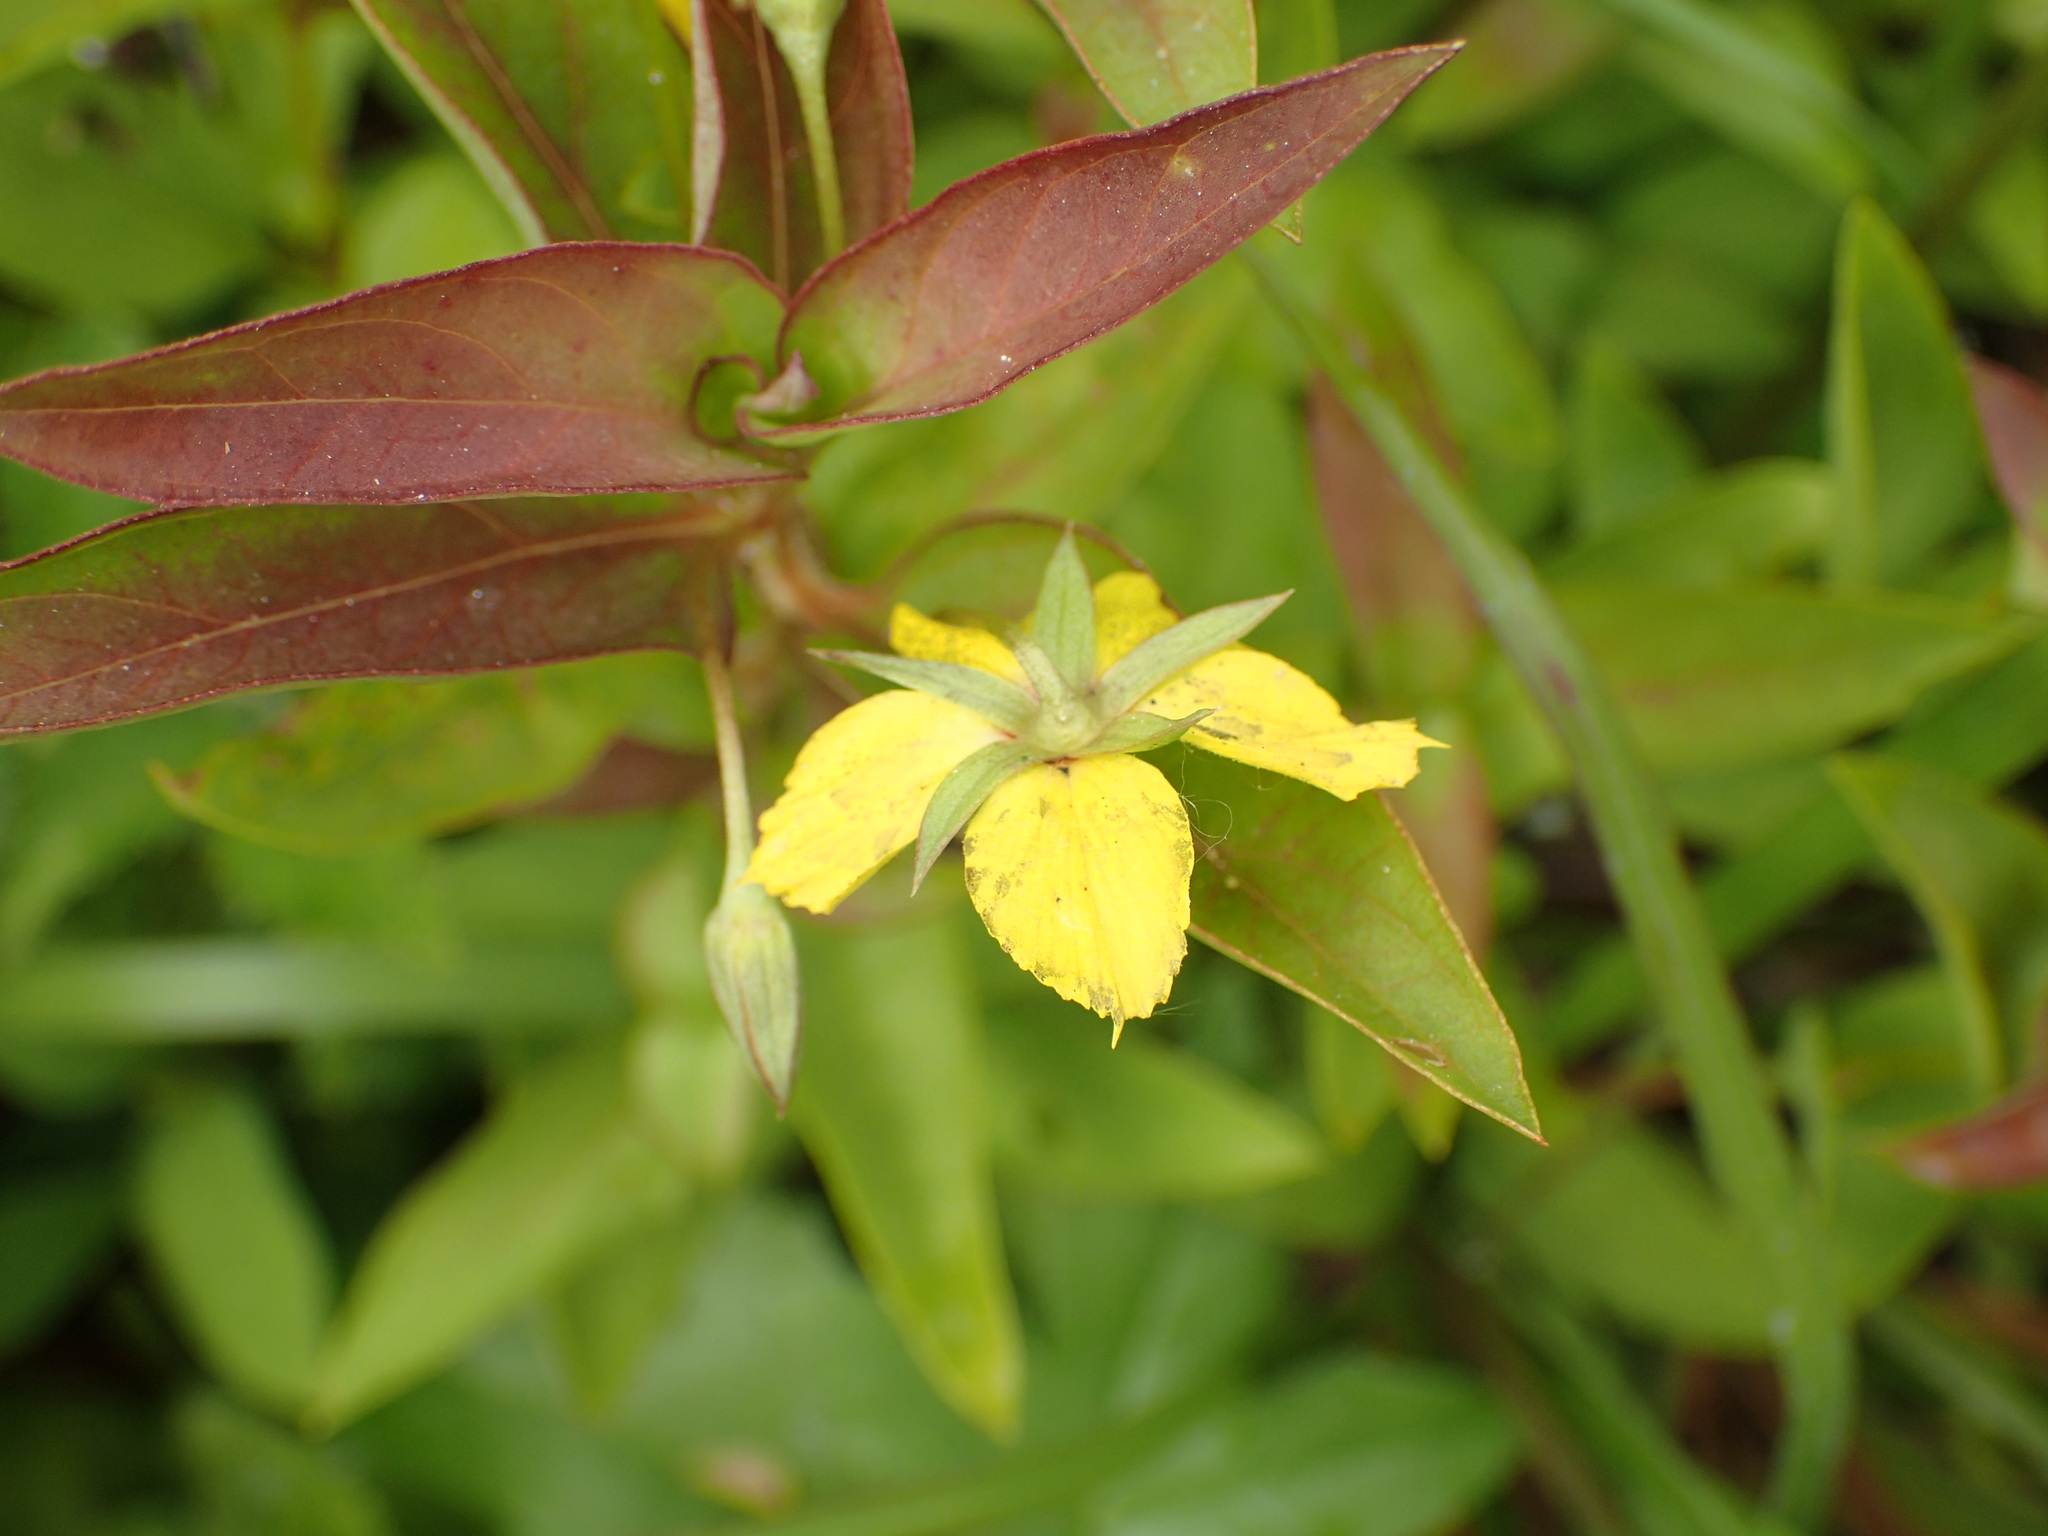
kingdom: Plantae
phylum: Tracheophyta
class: Magnoliopsida
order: Ericales
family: Primulaceae
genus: Lysimachia
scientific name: Lysimachia tonsa
